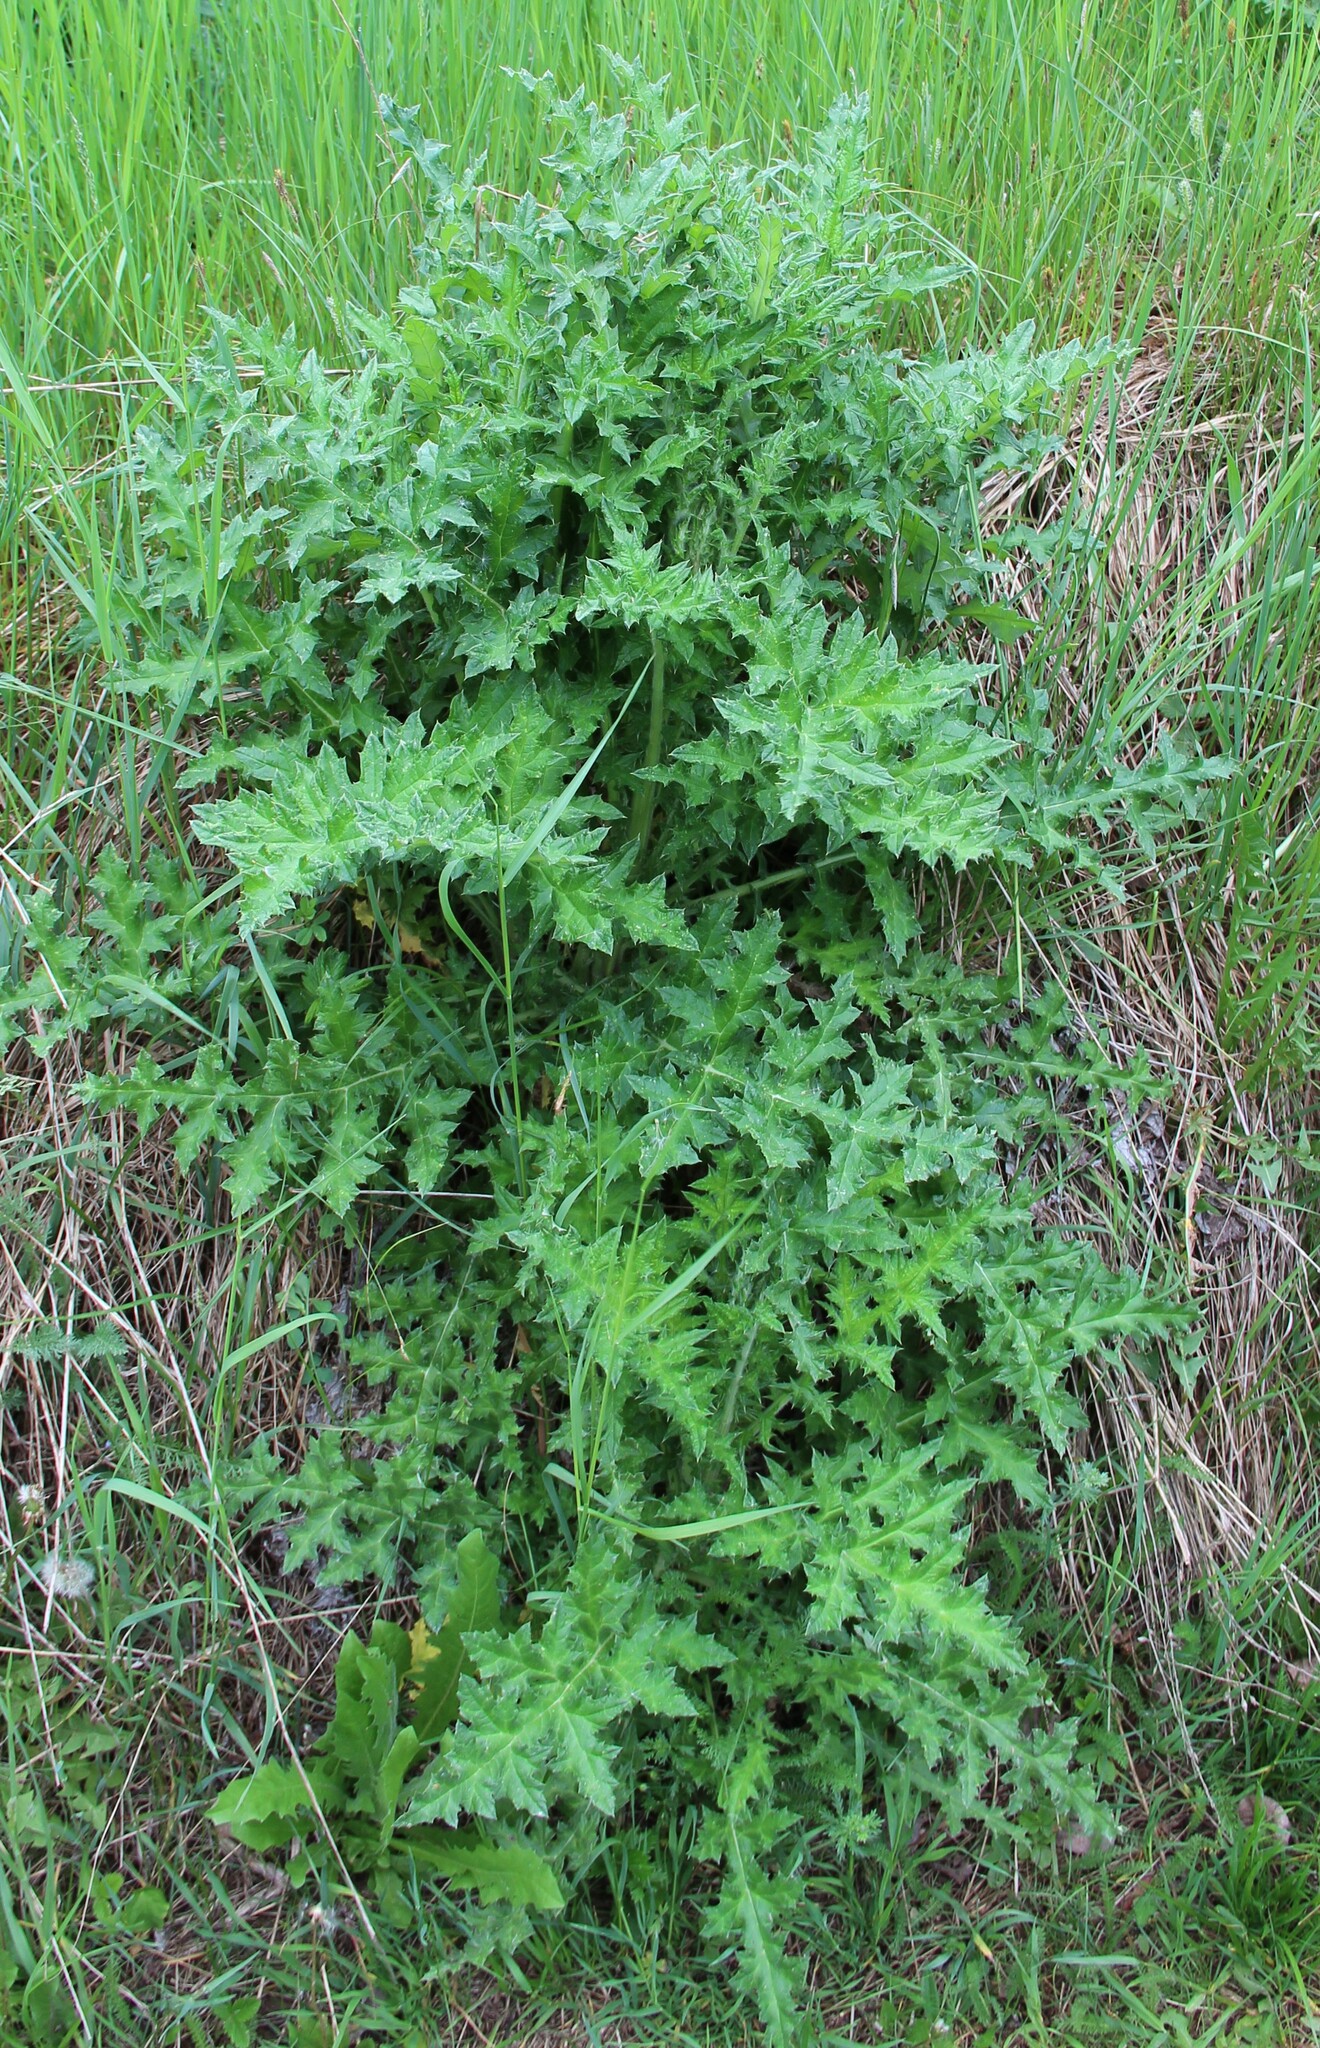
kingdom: Plantae
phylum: Tracheophyta
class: Magnoliopsida
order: Asterales
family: Asteraceae
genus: Echinops
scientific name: Echinops sphaerocephalus
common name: Glandular globe-thistle
